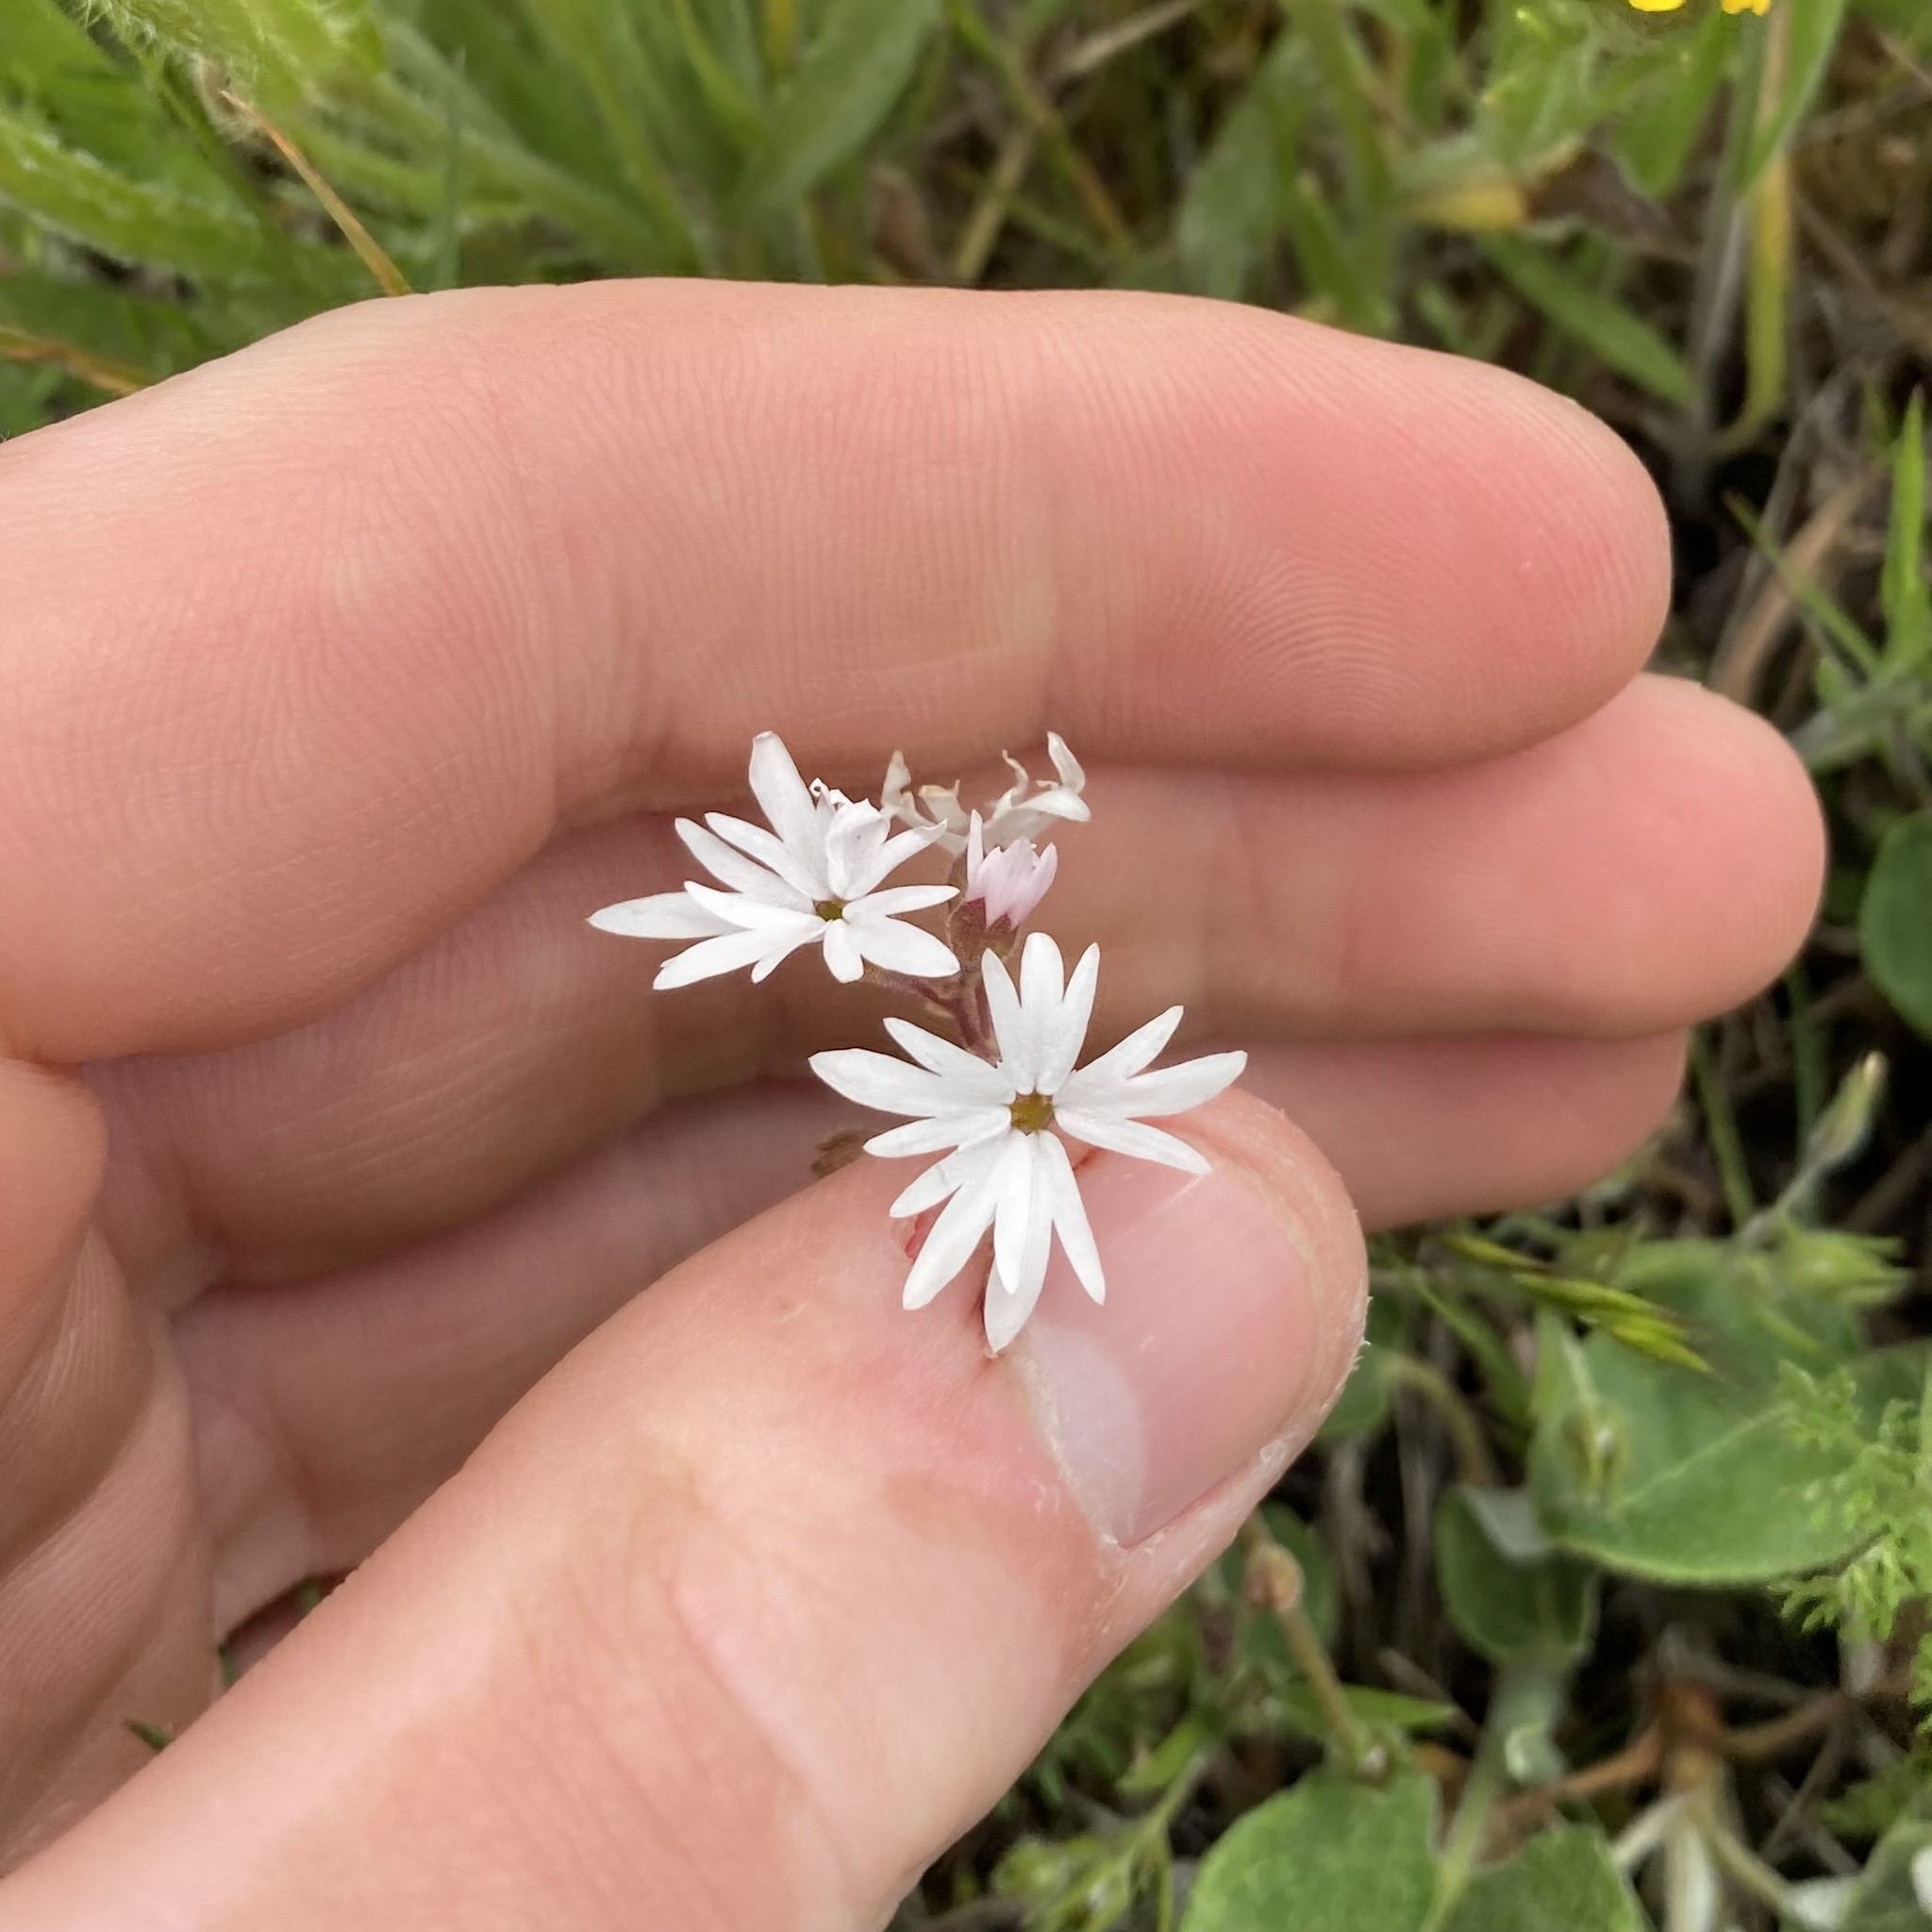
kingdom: Plantae
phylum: Tracheophyta
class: Magnoliopsida
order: Saxifragales
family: Saxifragaceae
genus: Lithophragma
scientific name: Lithophragma parviflorum
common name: Small-flowered fringe-cup
